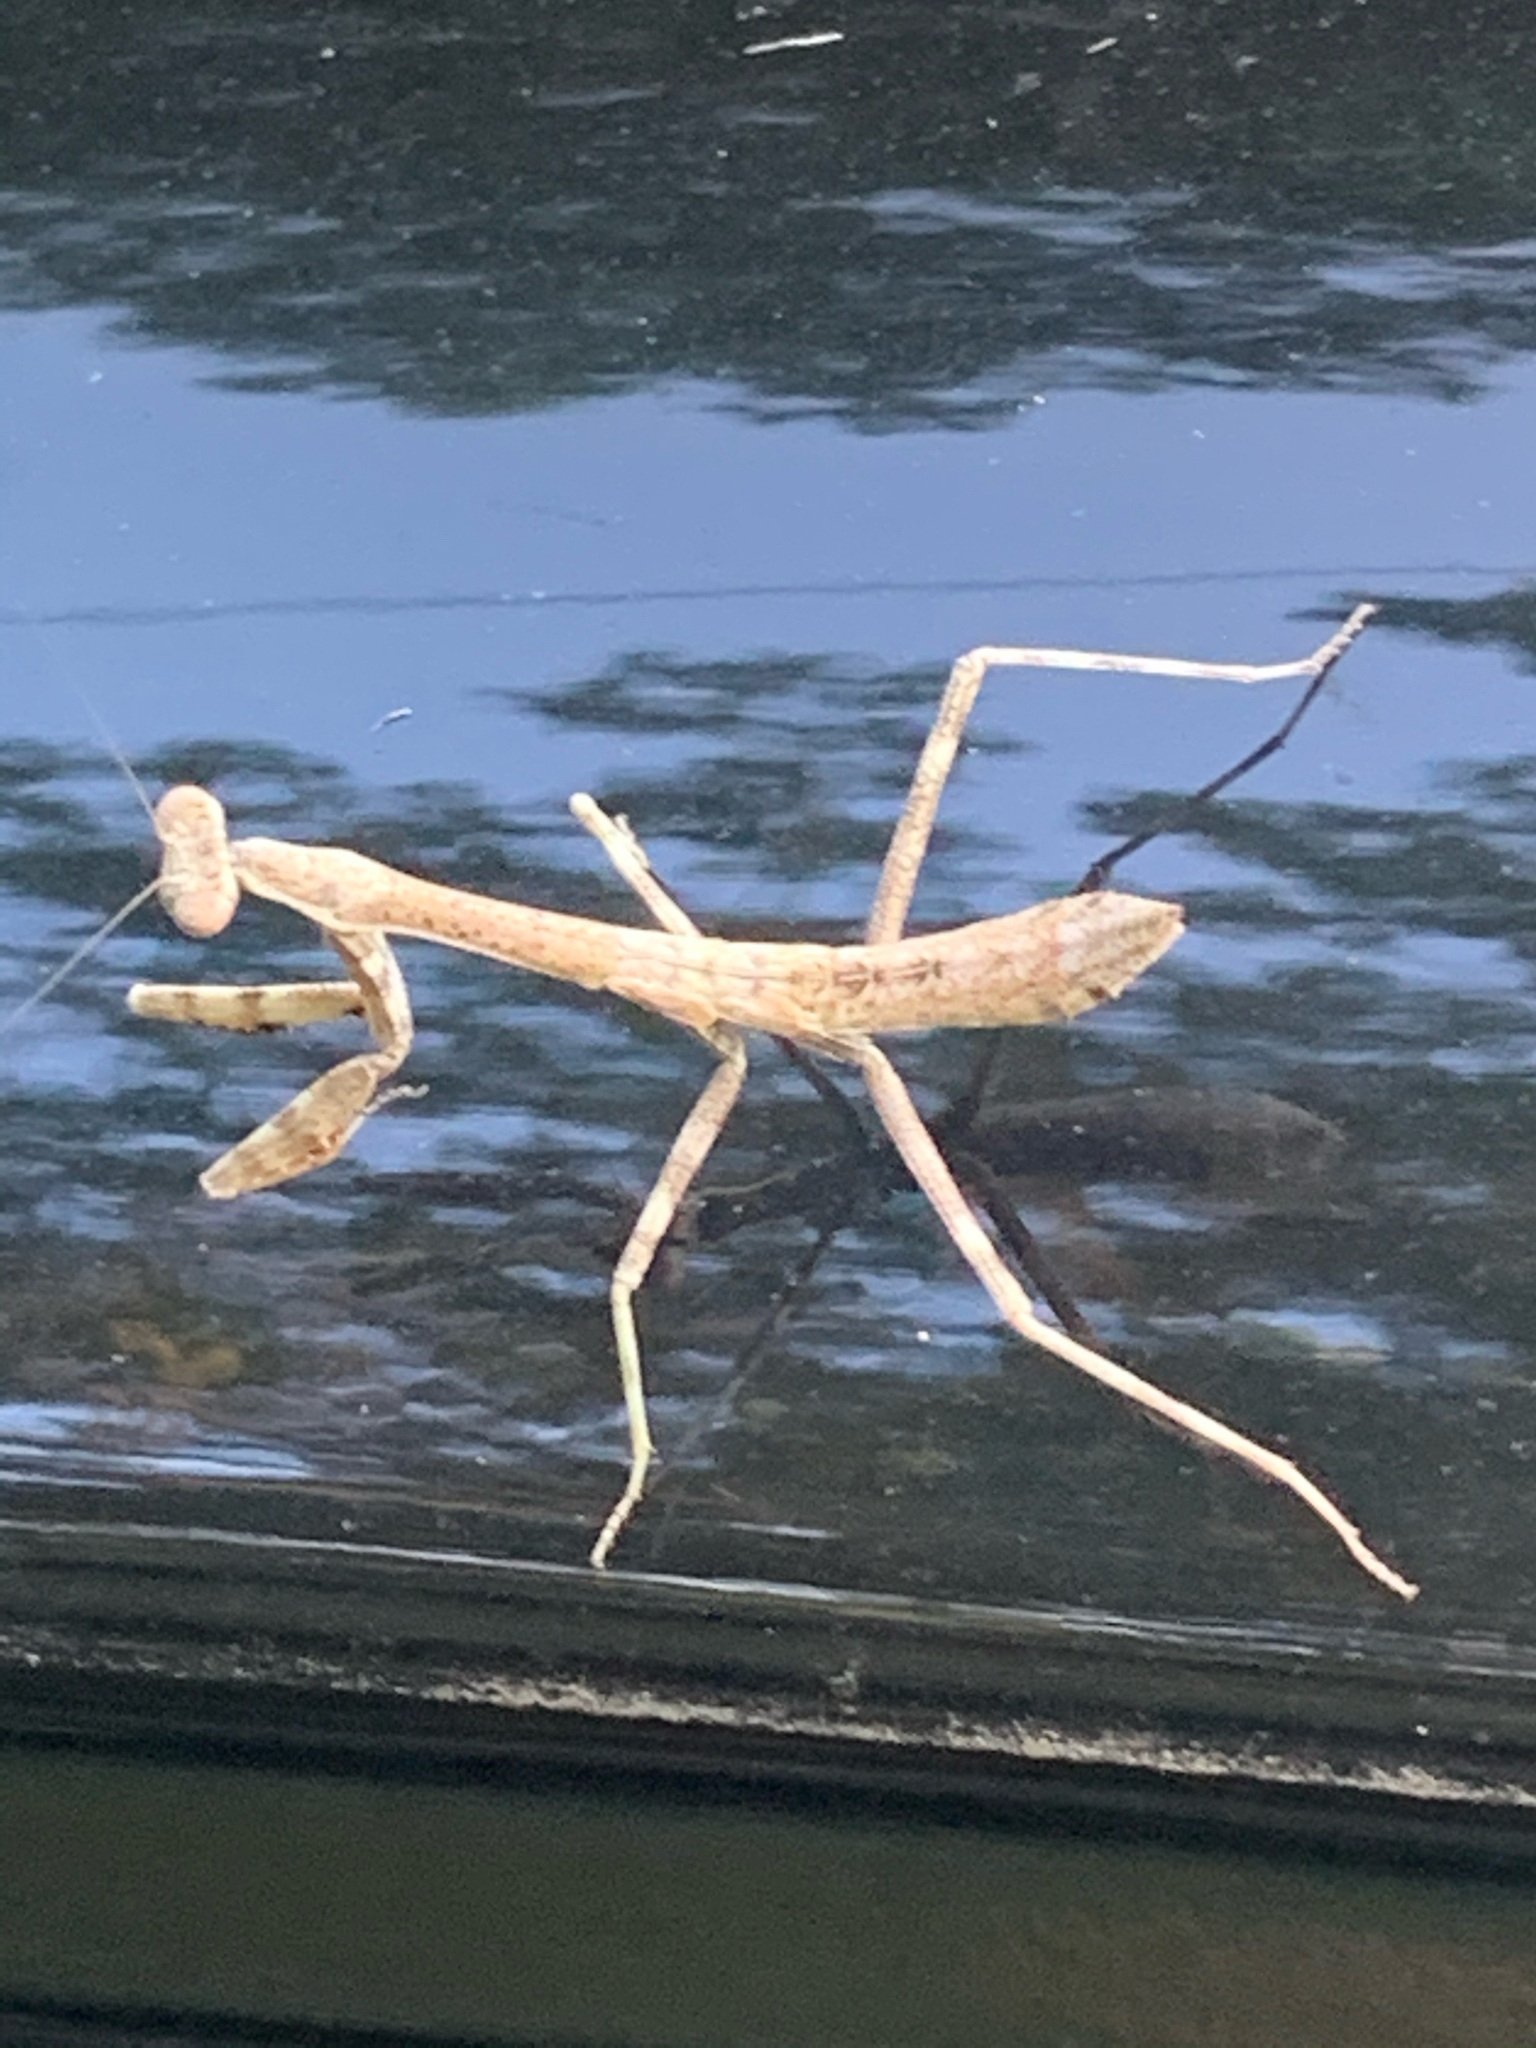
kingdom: Animalia
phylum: Arthropoda
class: Insecta
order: Mantodea
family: Mantidae
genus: Stagmomantis
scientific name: Stagmomantis carolina
